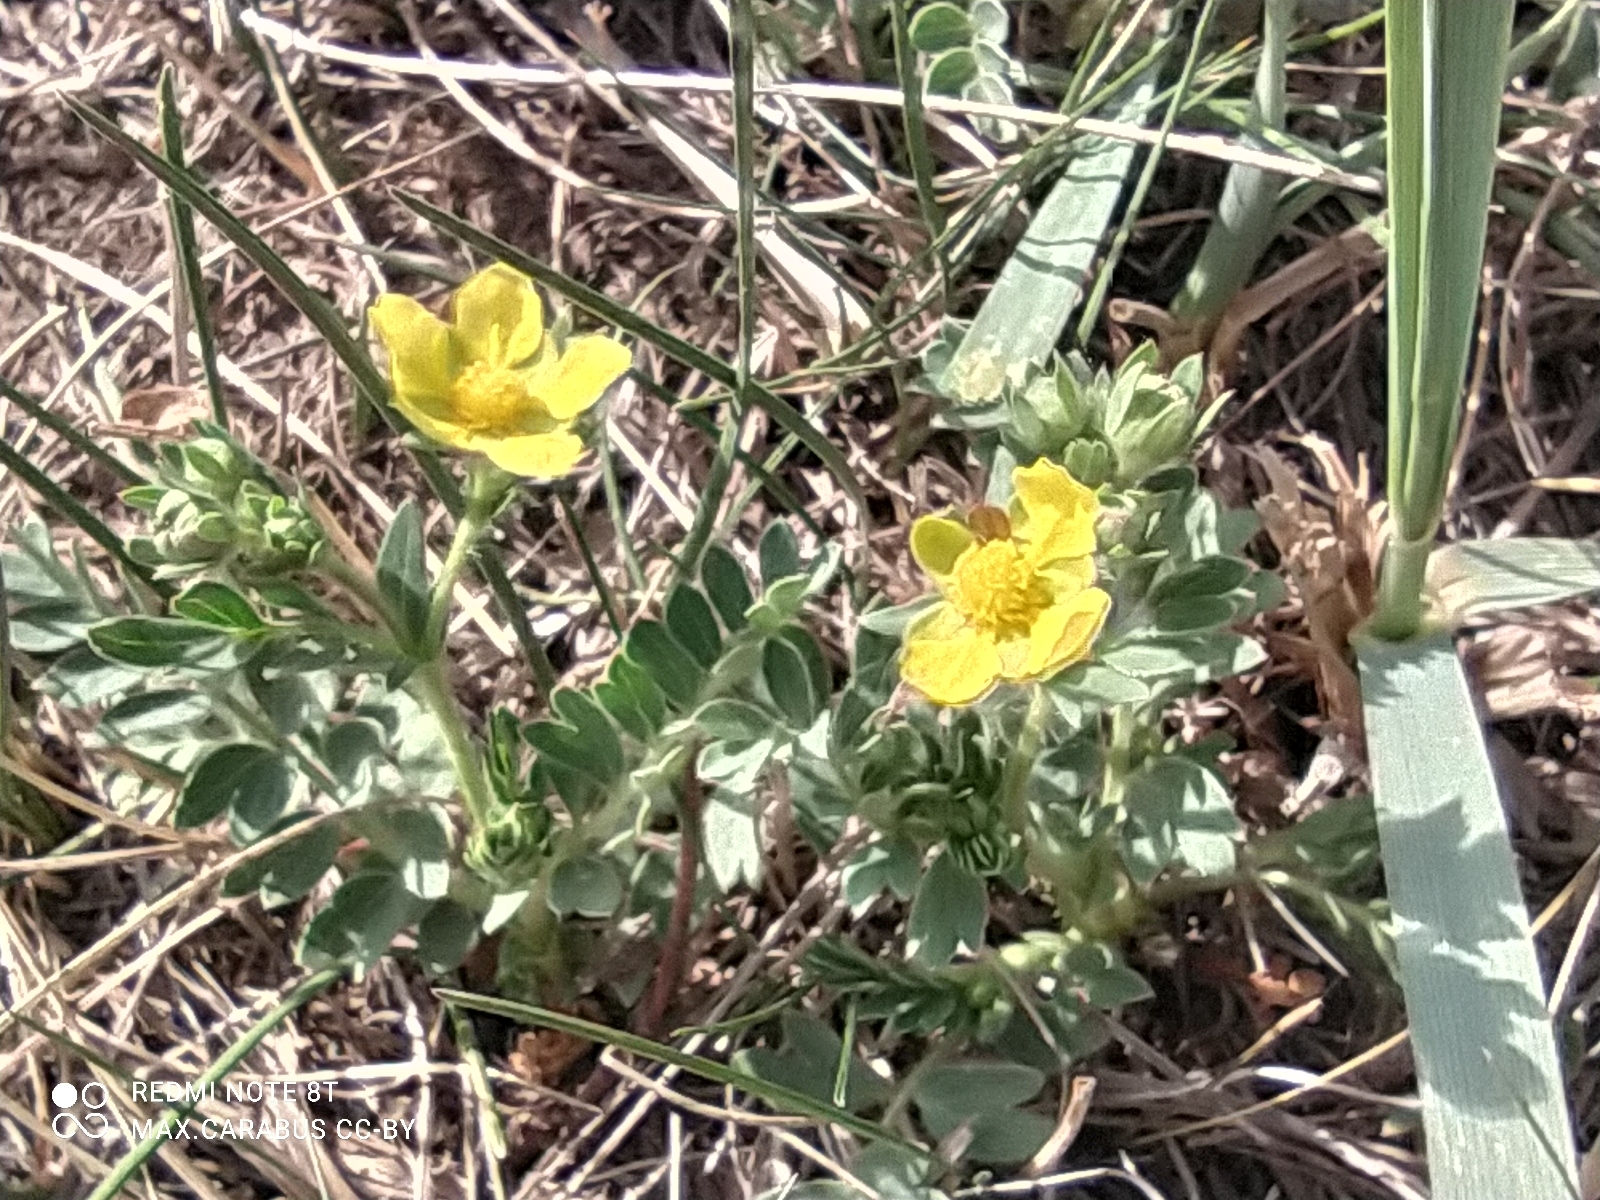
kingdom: Plantae
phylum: Tracheophyta
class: Magnoliopsida
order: Rosales
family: Rosaceae
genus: Sibbaldianthe
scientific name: Sibbaldianthe bifurca
